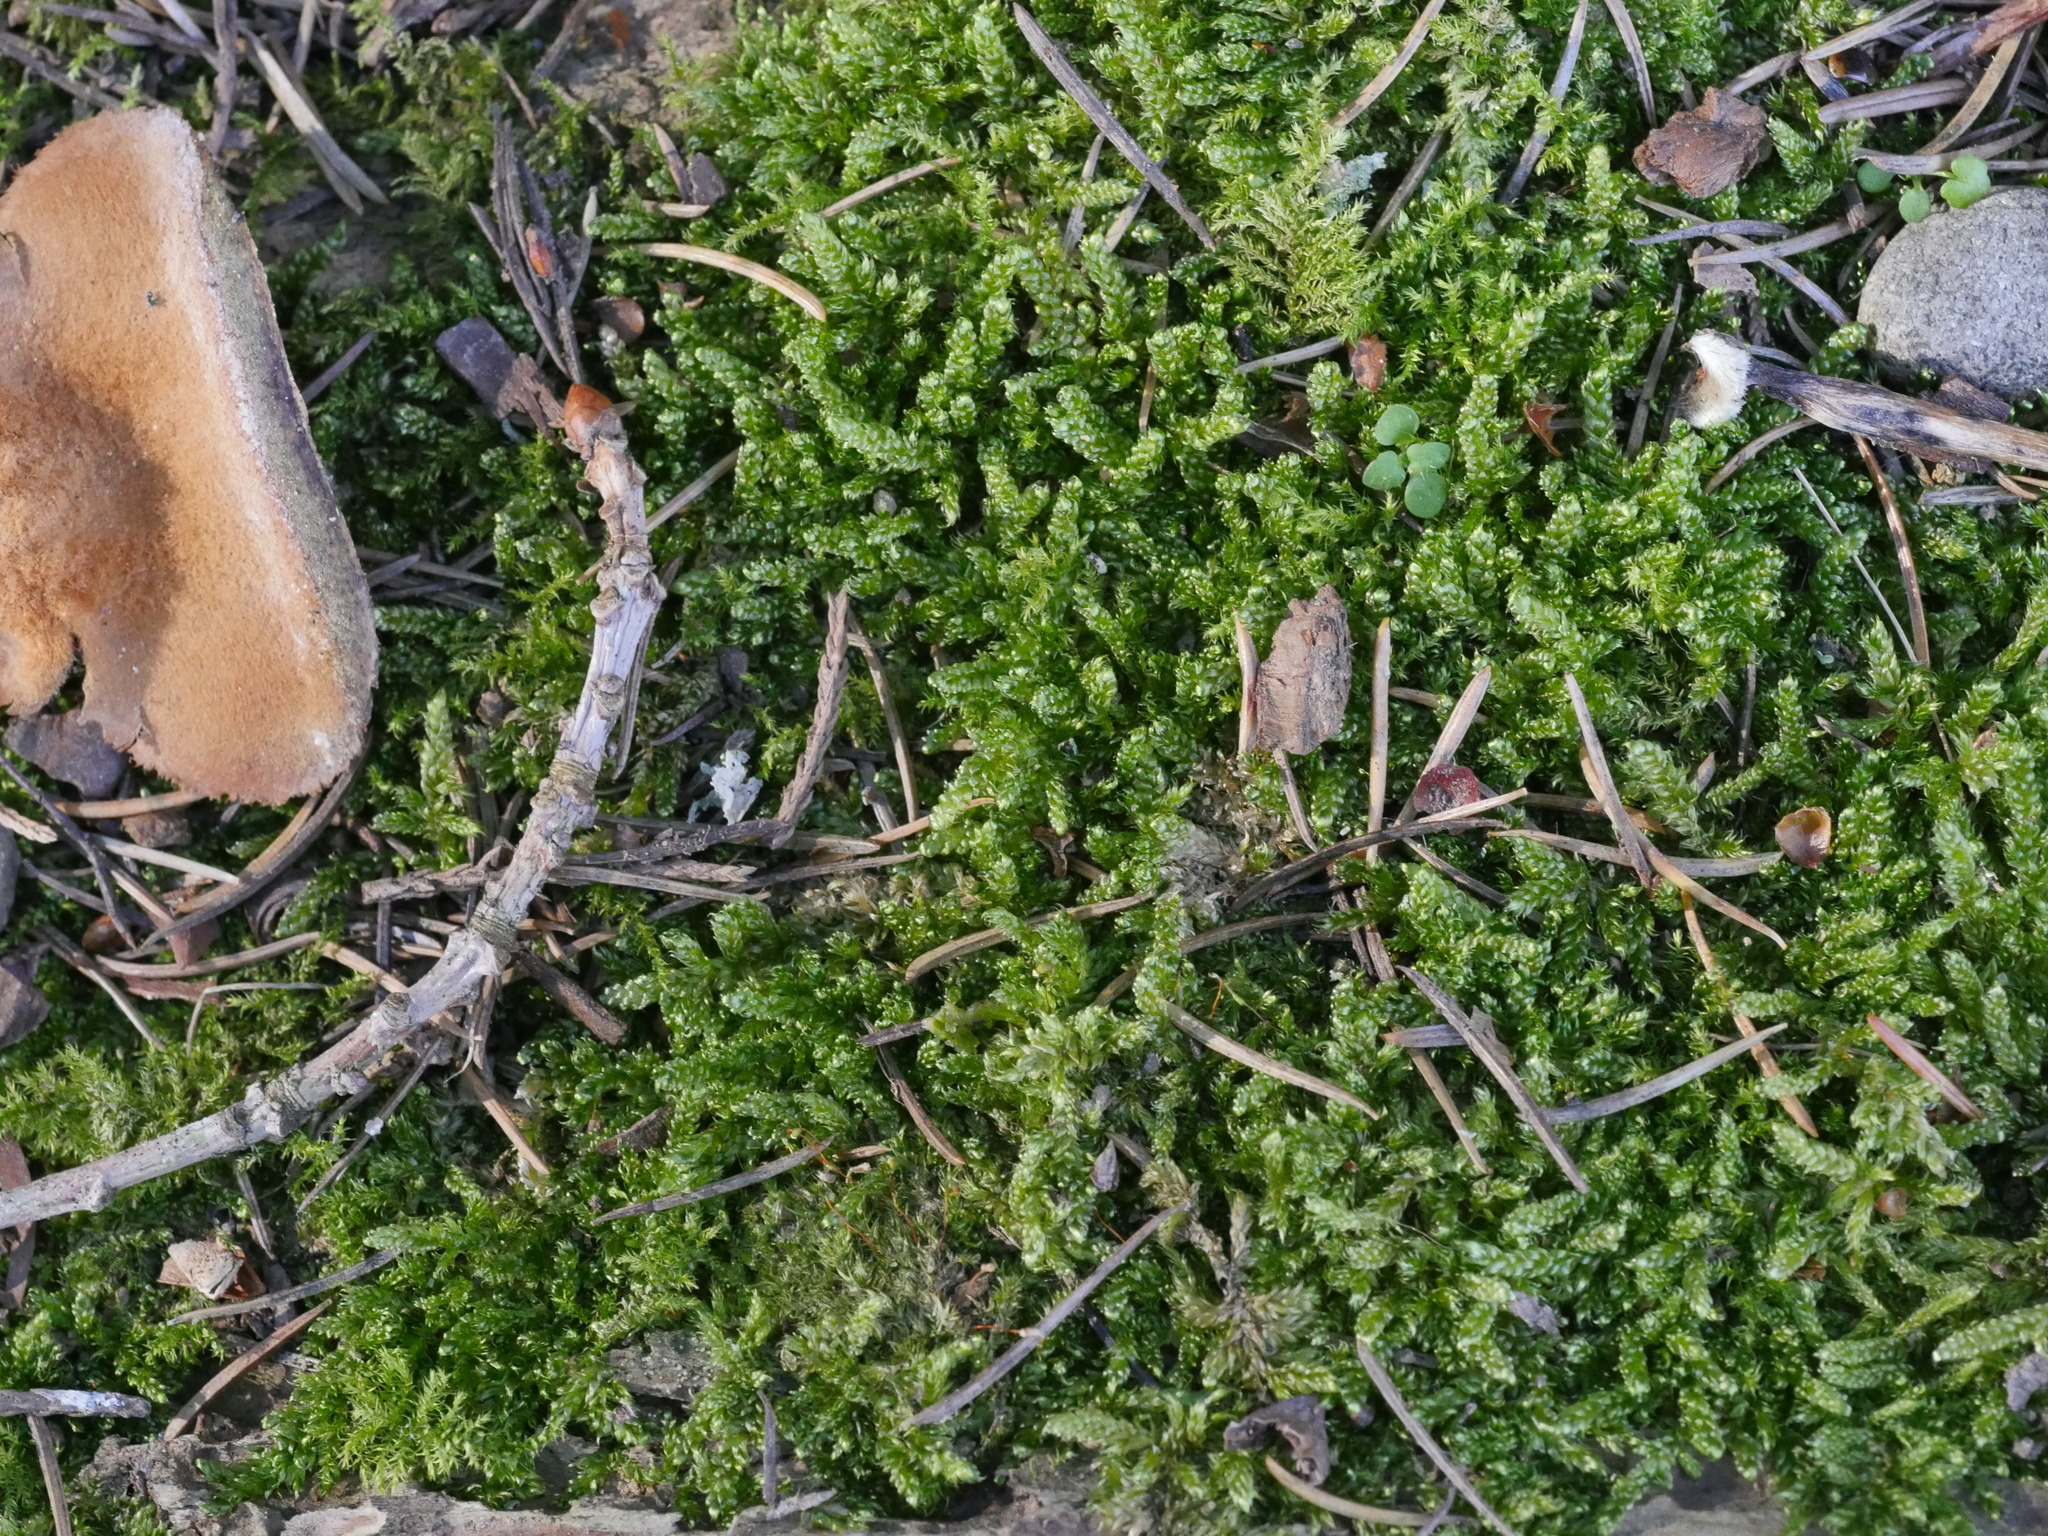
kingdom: Plantae
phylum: Bryophyta
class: Bryopsida
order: Hypnales
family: Pylaisiadelphaceae
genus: Notohypnum
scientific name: Notohypnum chrysogaster
